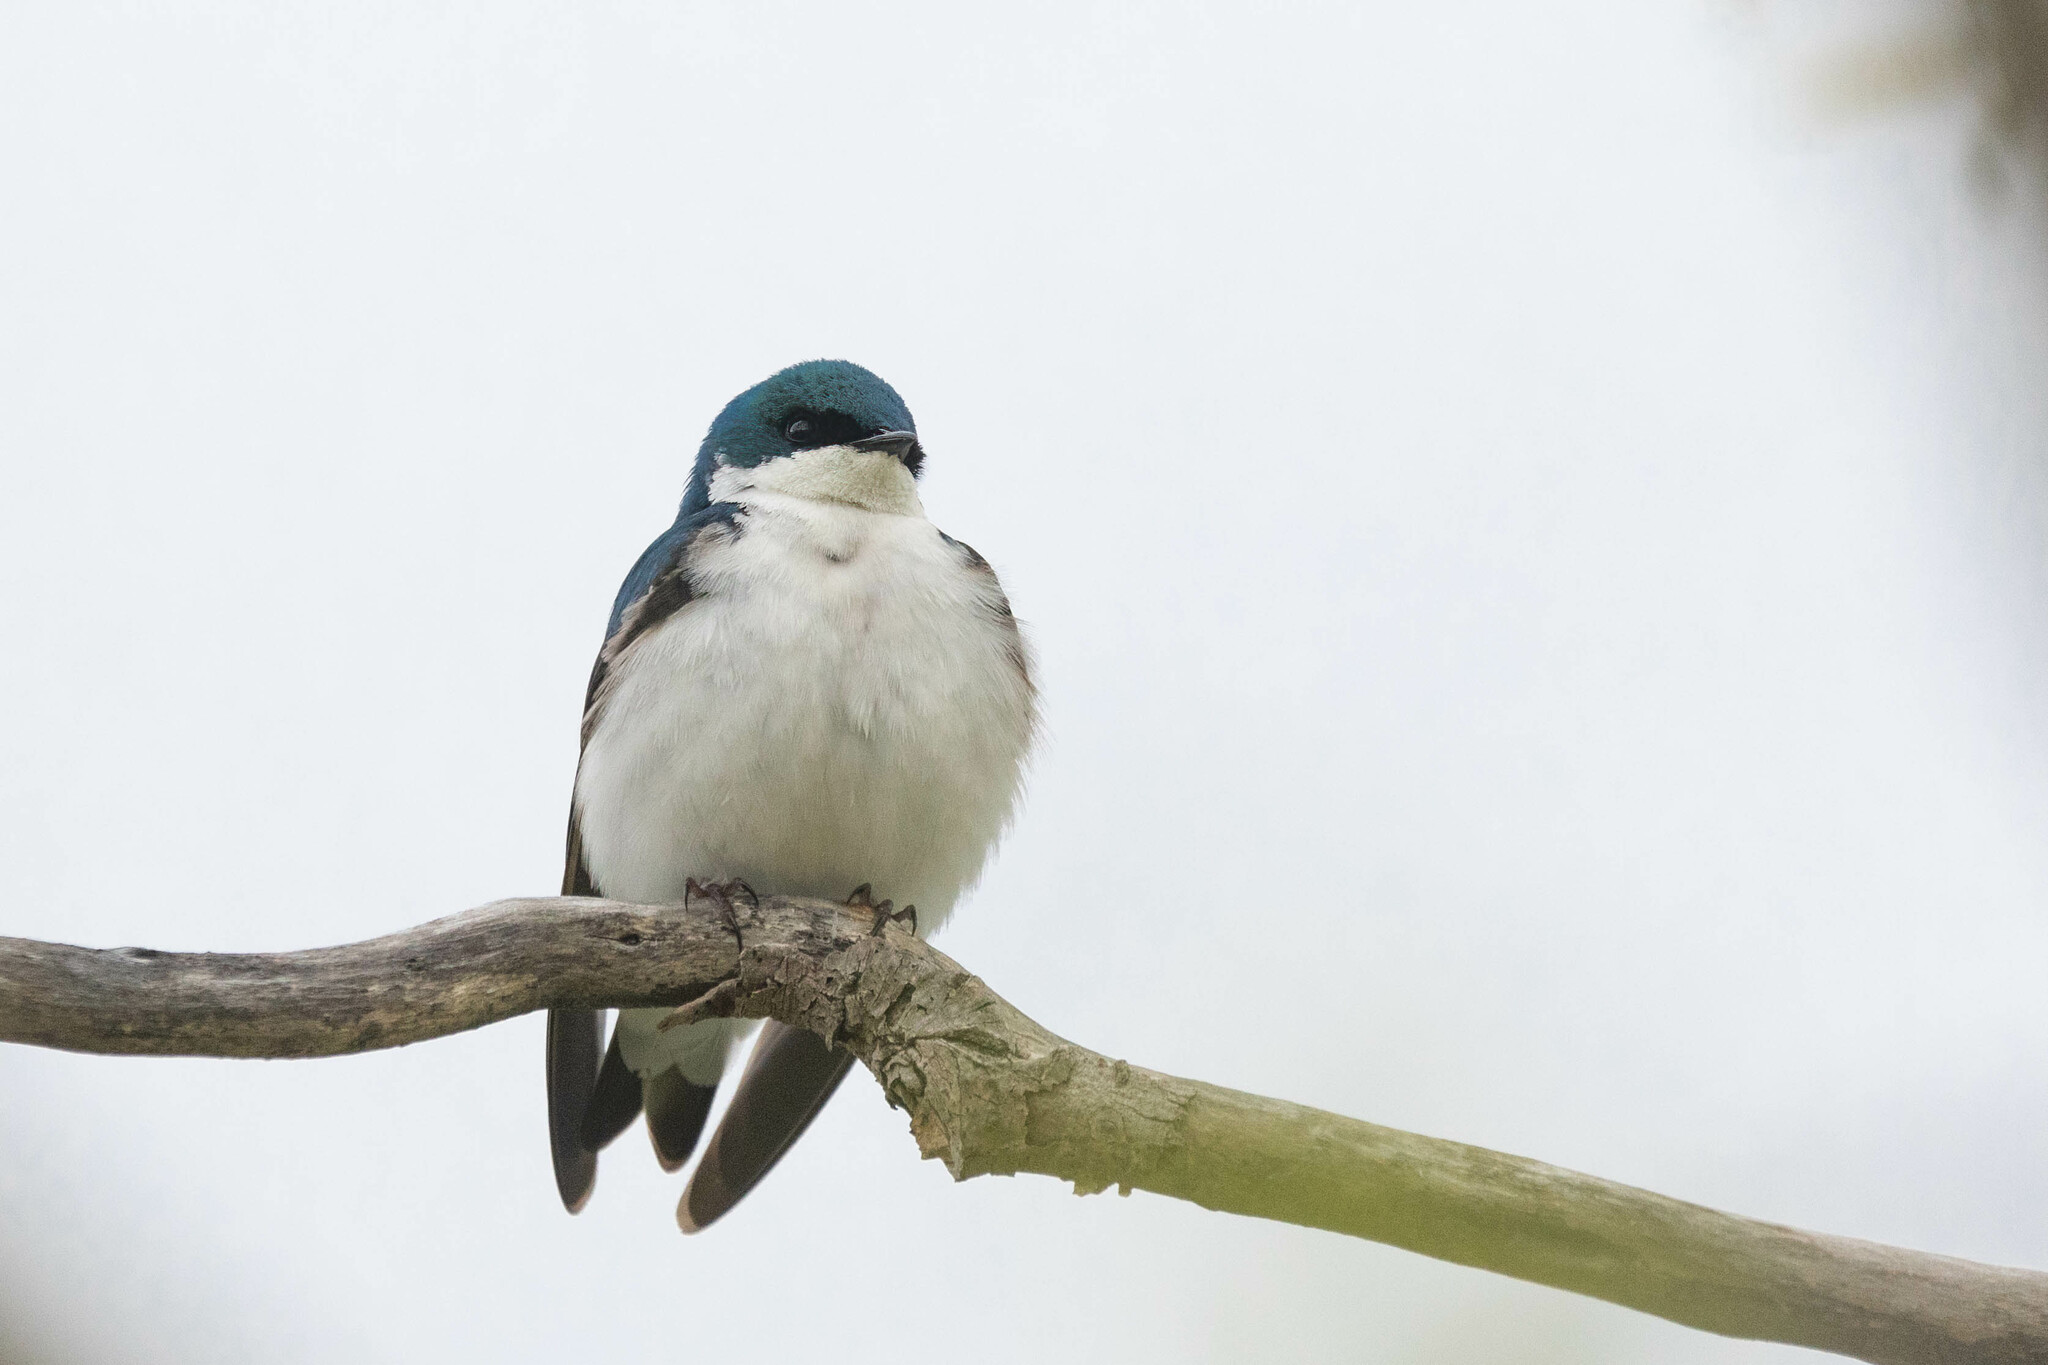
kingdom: Animalia
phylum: Chordata
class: Aves
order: Passeriformes
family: Hirundinidae
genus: Tachycineta
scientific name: Tachycineta bicolor
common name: Tree swallow
